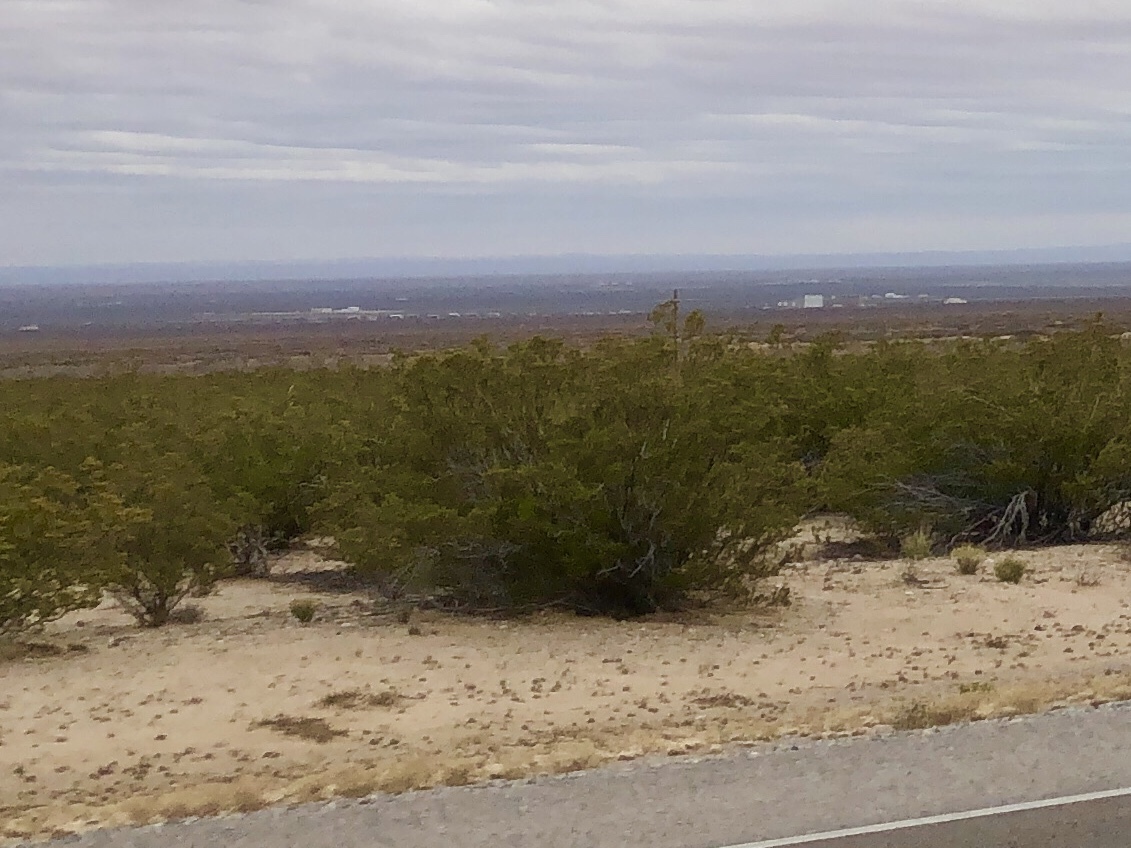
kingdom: Plantae
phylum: Tracheophyta
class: Magnoliopsida
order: Zygophyllales
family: Zygophyllaceae
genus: Larrea
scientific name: Larrea tridentata
